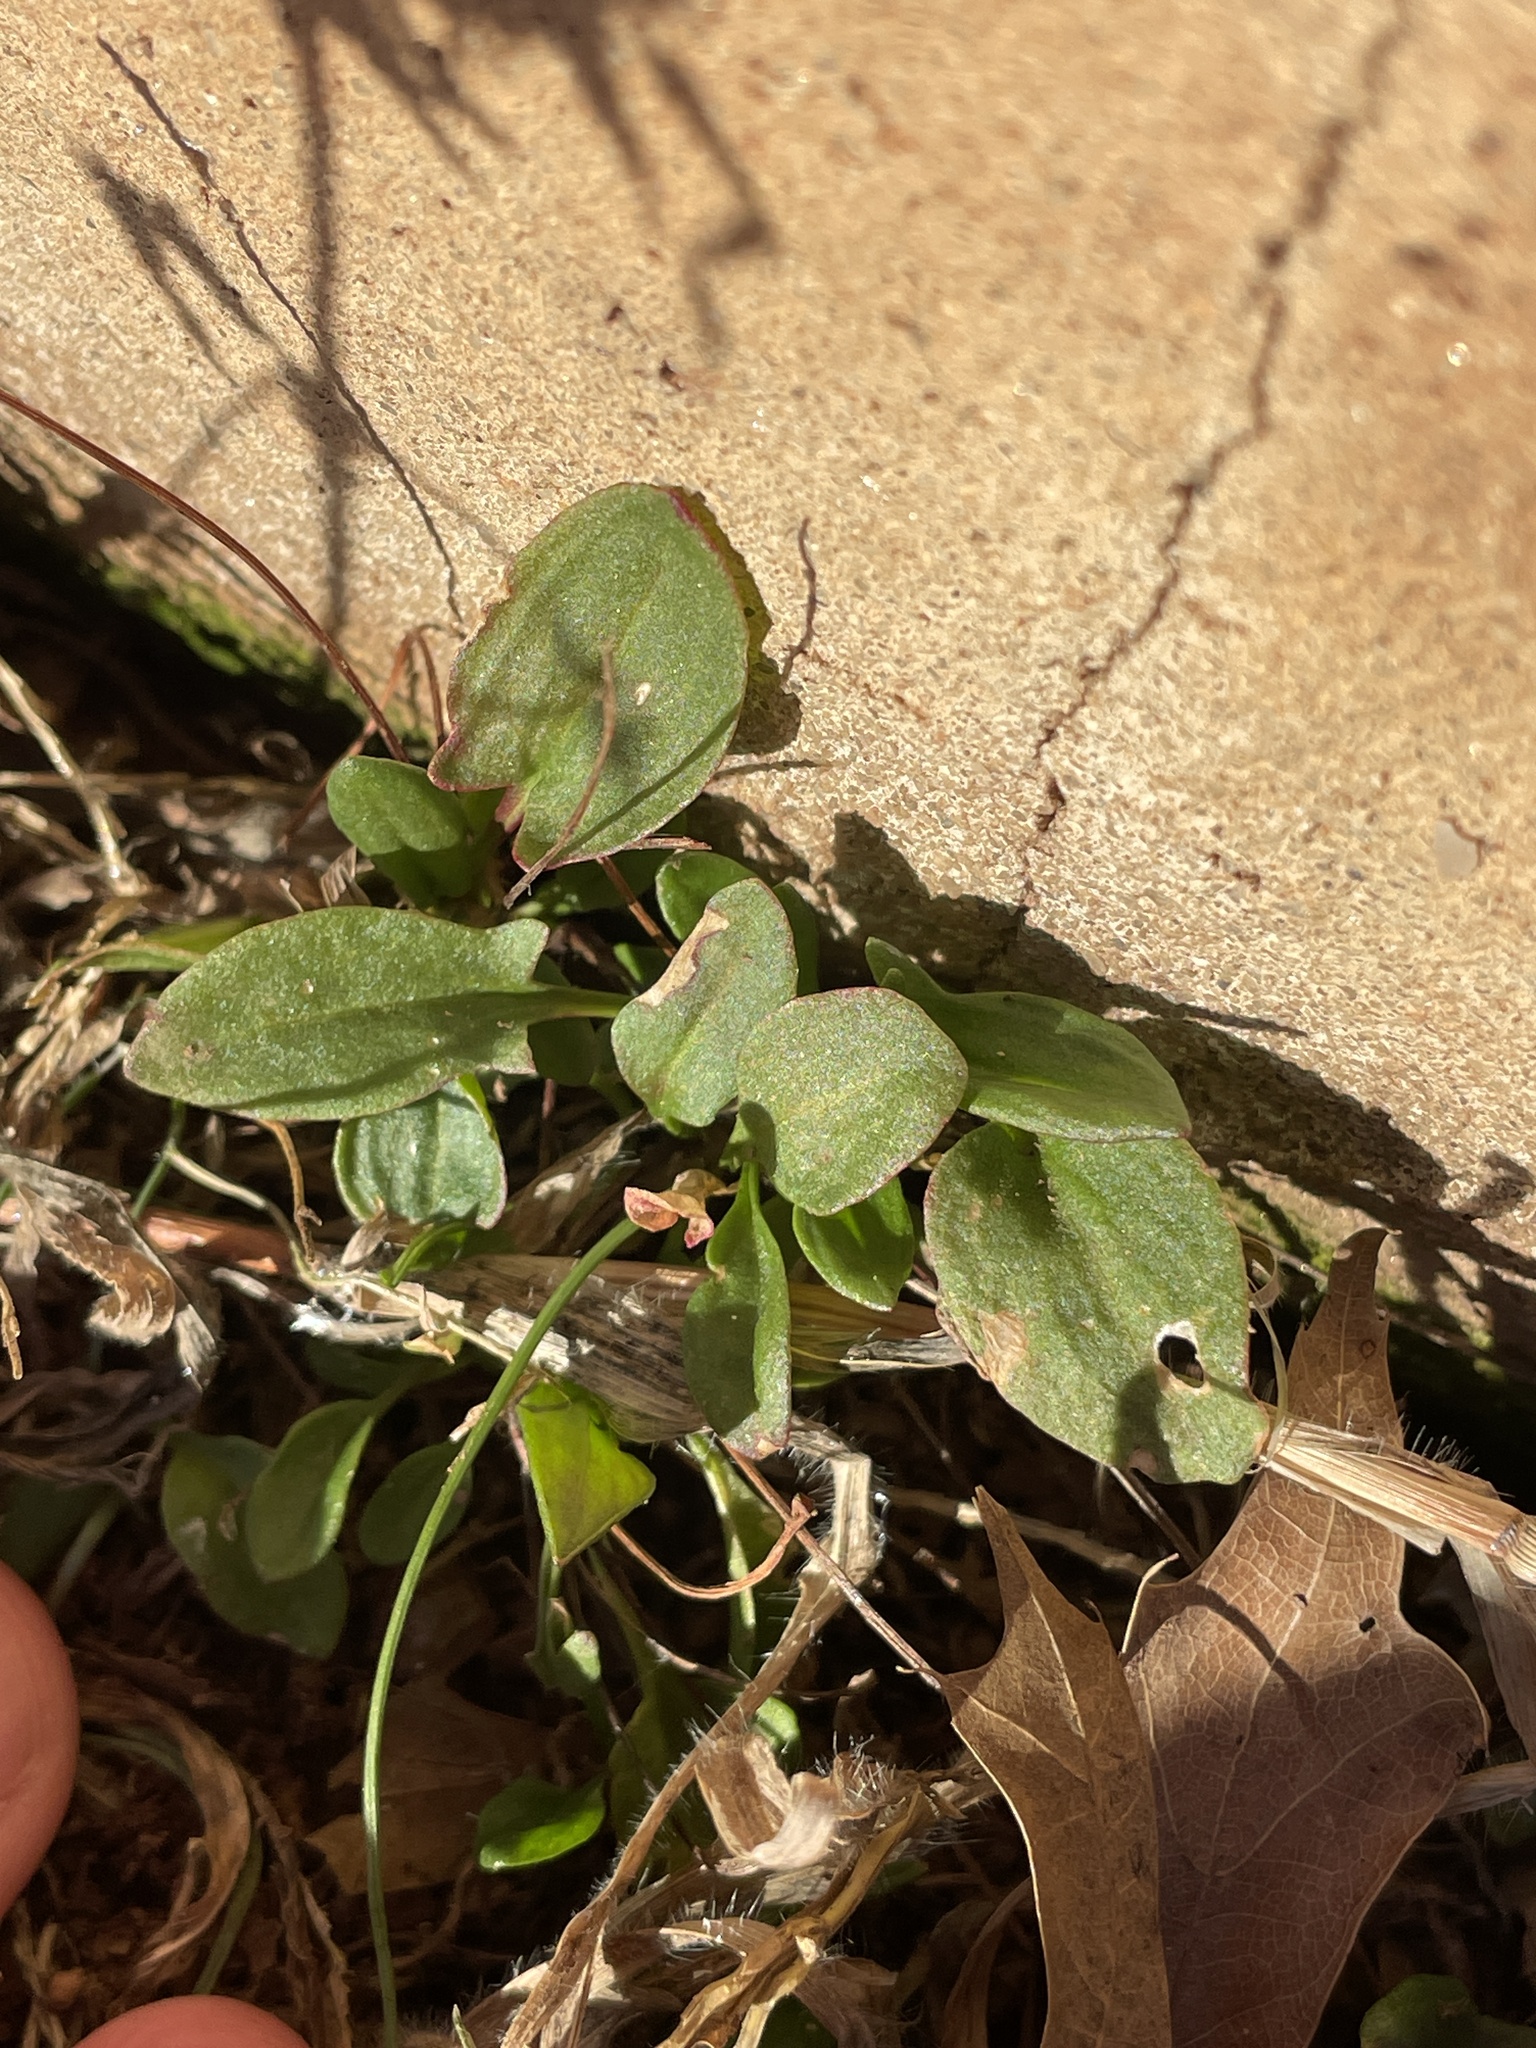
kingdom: Plantae
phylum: Tracheophyta
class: Magnoliopsida
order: Caryophyllales
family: Polygonaceae
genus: Rumex
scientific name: Rumex acetosella
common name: Common sheep sorrel
